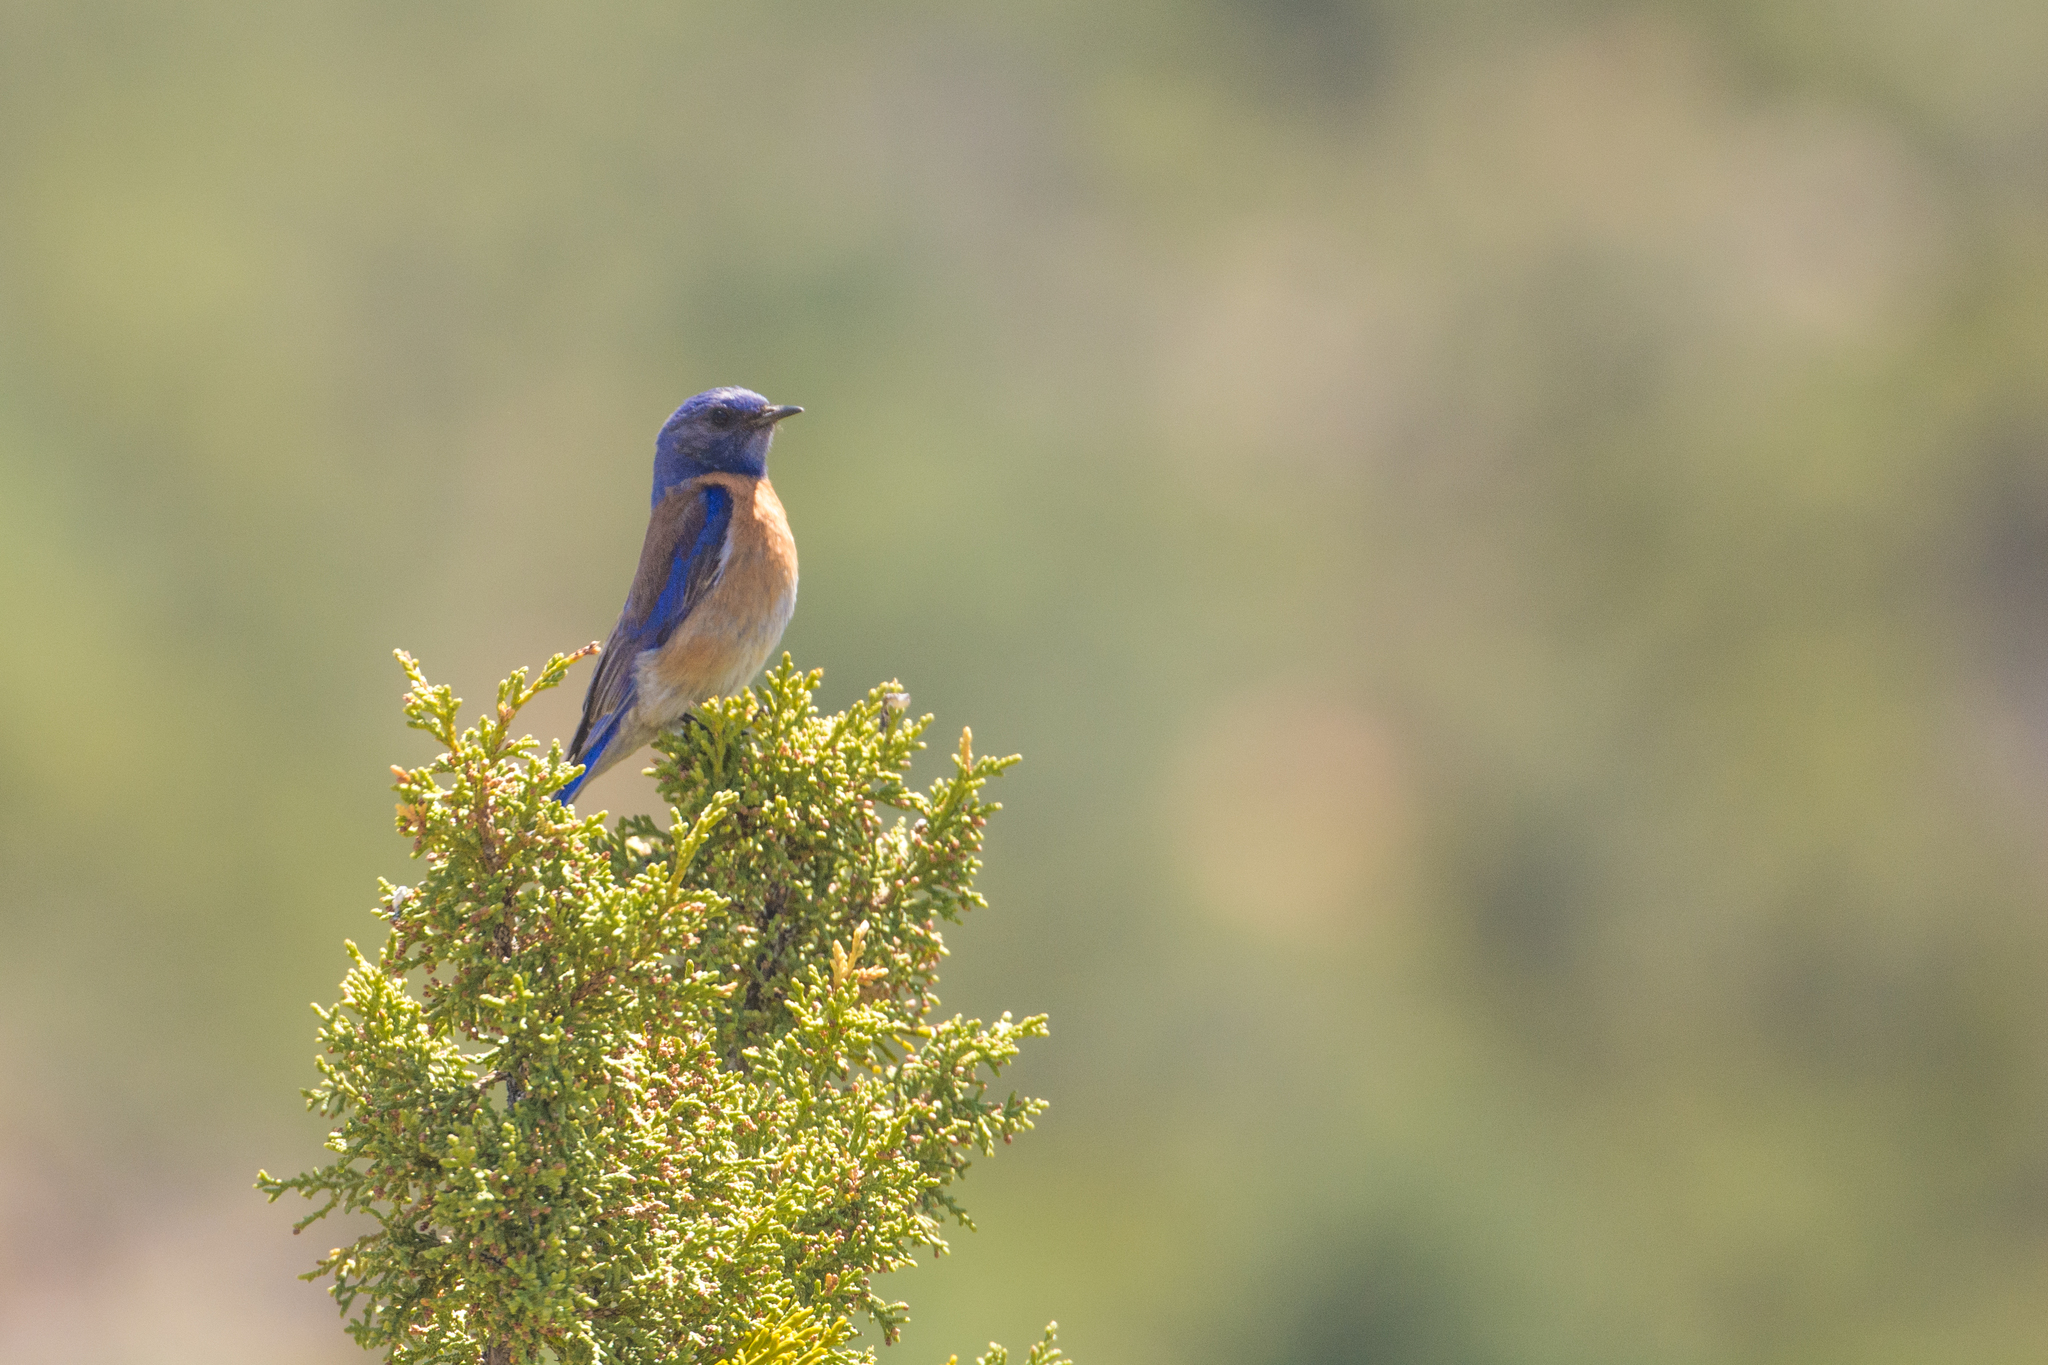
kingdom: Animalia
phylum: Chordata
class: Aves
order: Passeriformes
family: Turdidae
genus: Sialia
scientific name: Sialia mexicana
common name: Western bluebird
